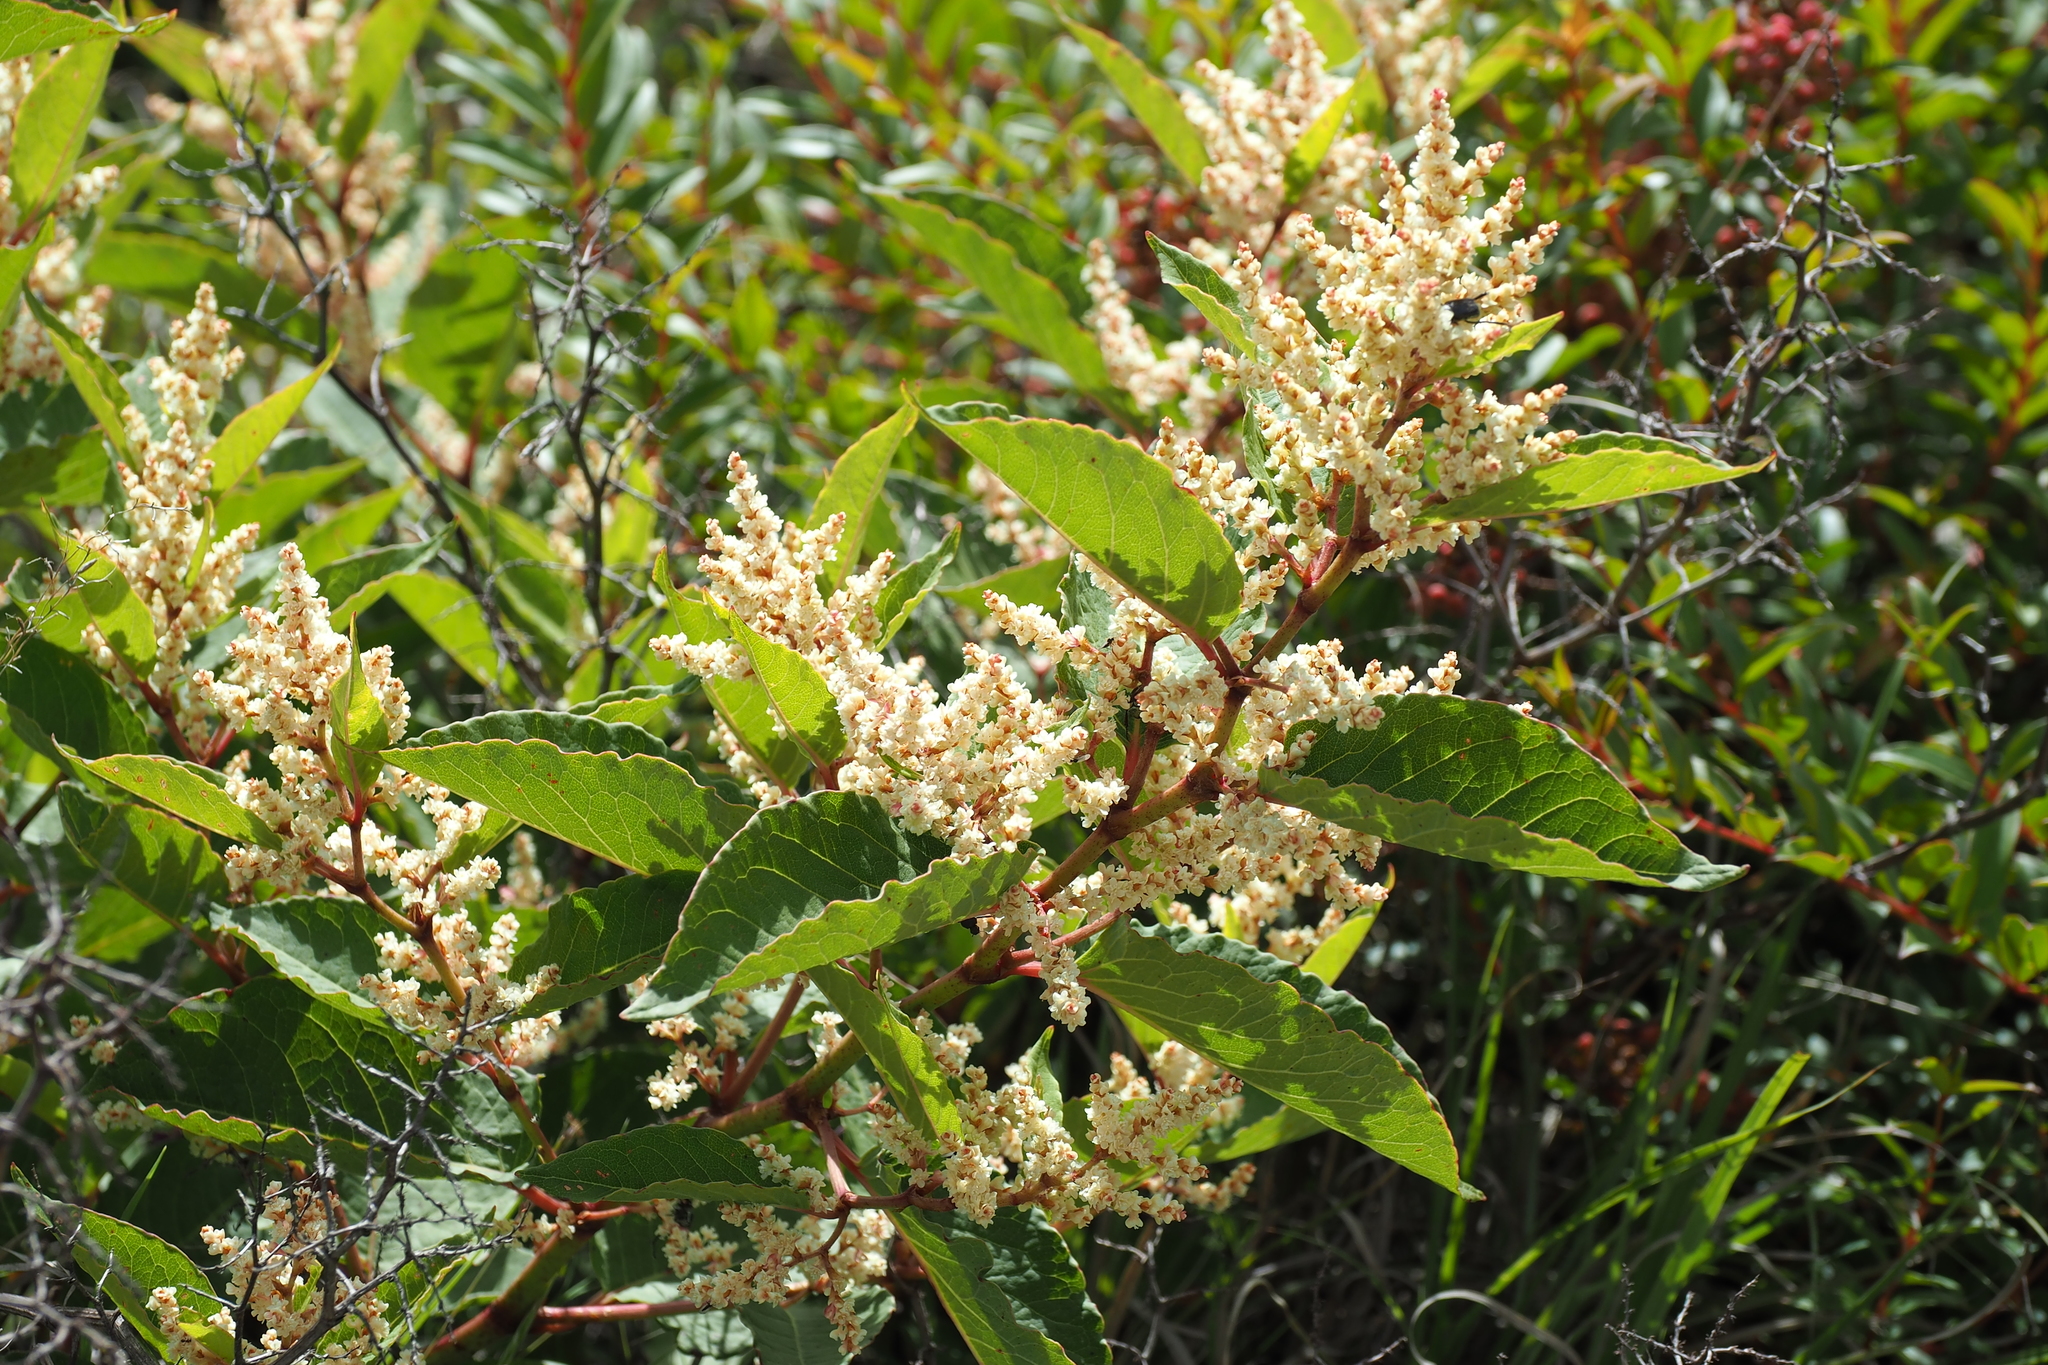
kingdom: Plantae
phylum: Tracheophyta
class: Magnoliopsida
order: Caryophyllales
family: Polygonaceae
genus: Reynoutria
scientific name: Reynoutria japonica
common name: Japanese knotweed
